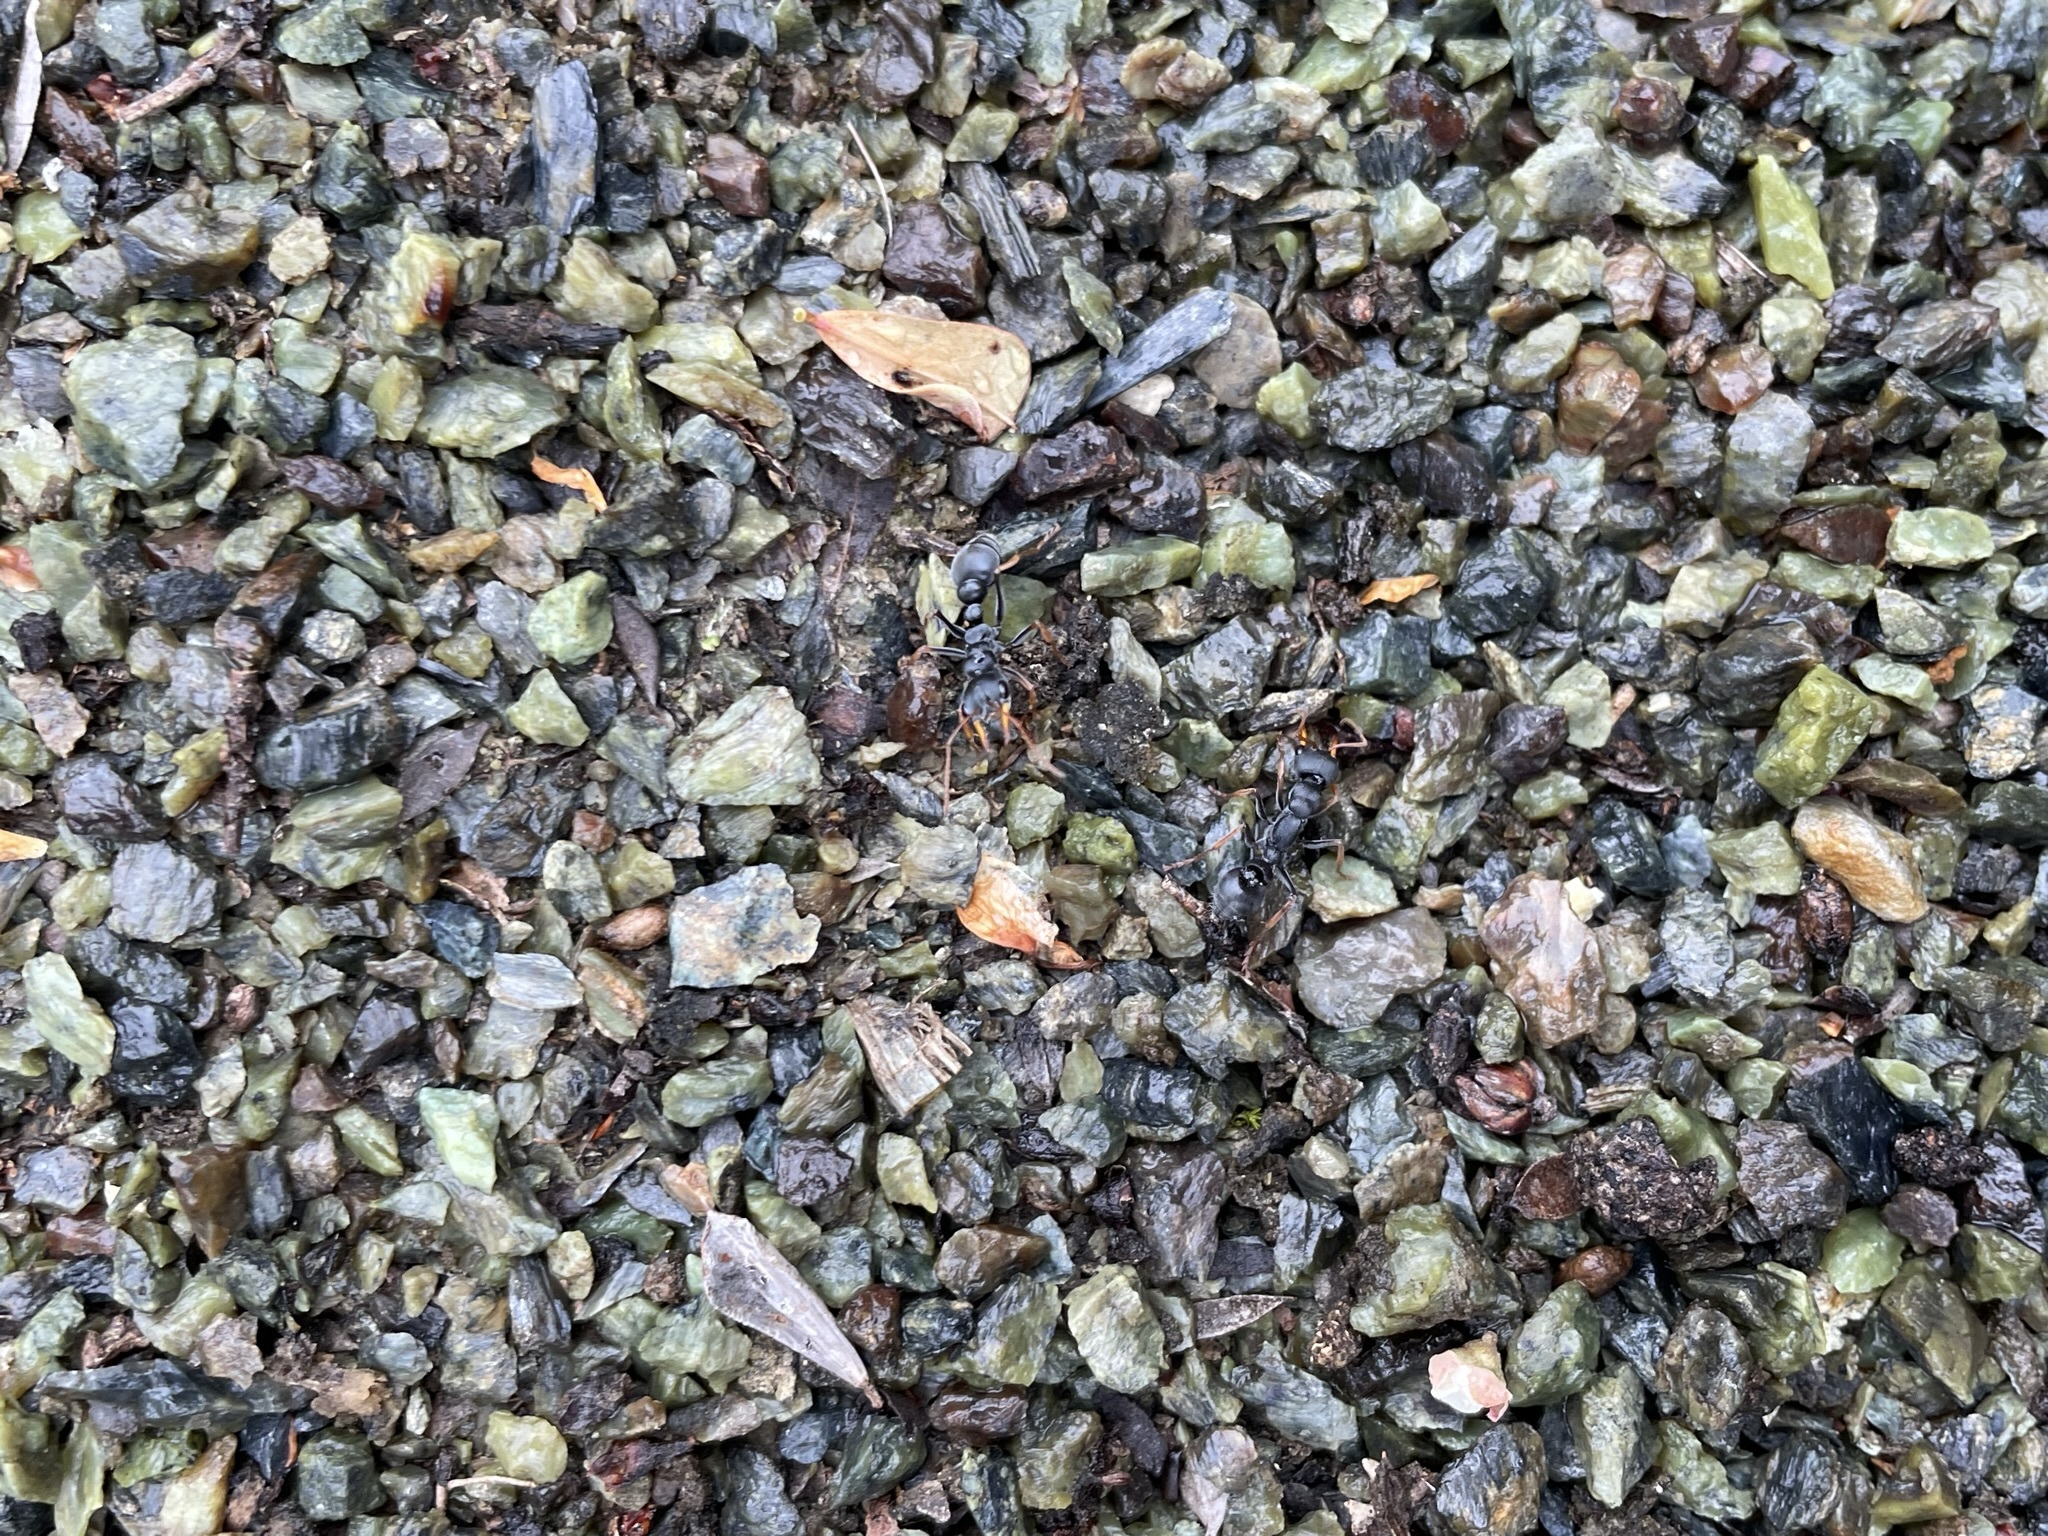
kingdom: Animalia
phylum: Arthropoda
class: Insecta
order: Hymenoptera
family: Formicidae
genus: Myrmecia
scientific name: Myrmecia pilosula
